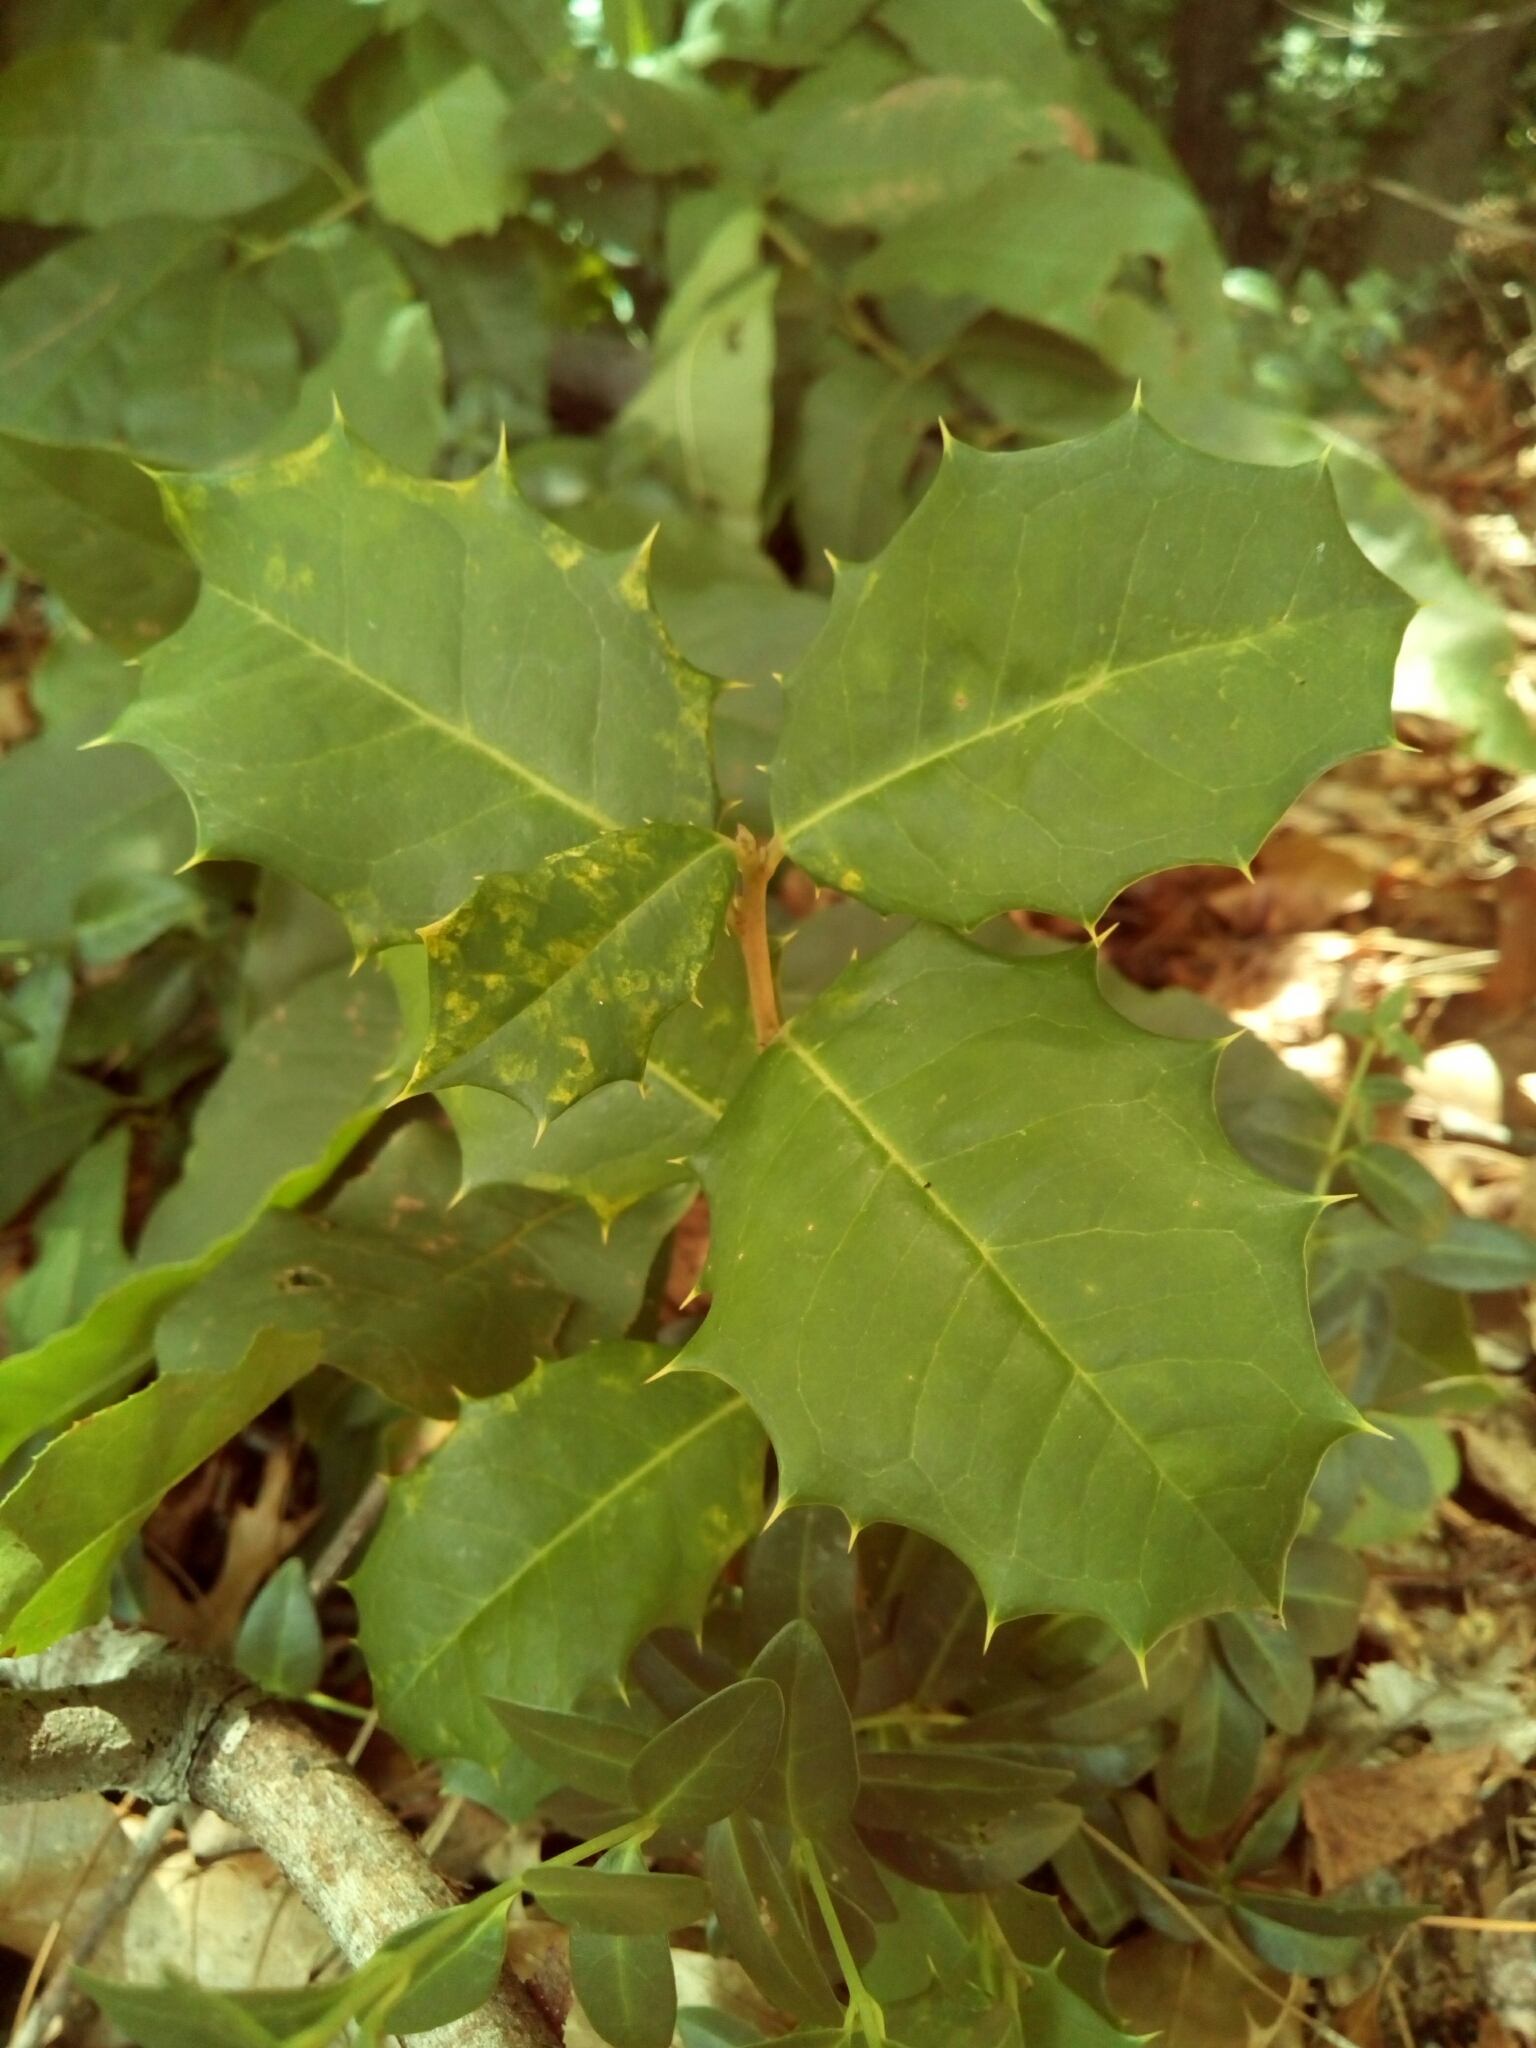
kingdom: Plantae
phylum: Tracheophyta
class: Magnoliopsida
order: Aquifoliales
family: Aquifoliaceae
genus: Ilex
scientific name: Ilex opaca
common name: American holly
